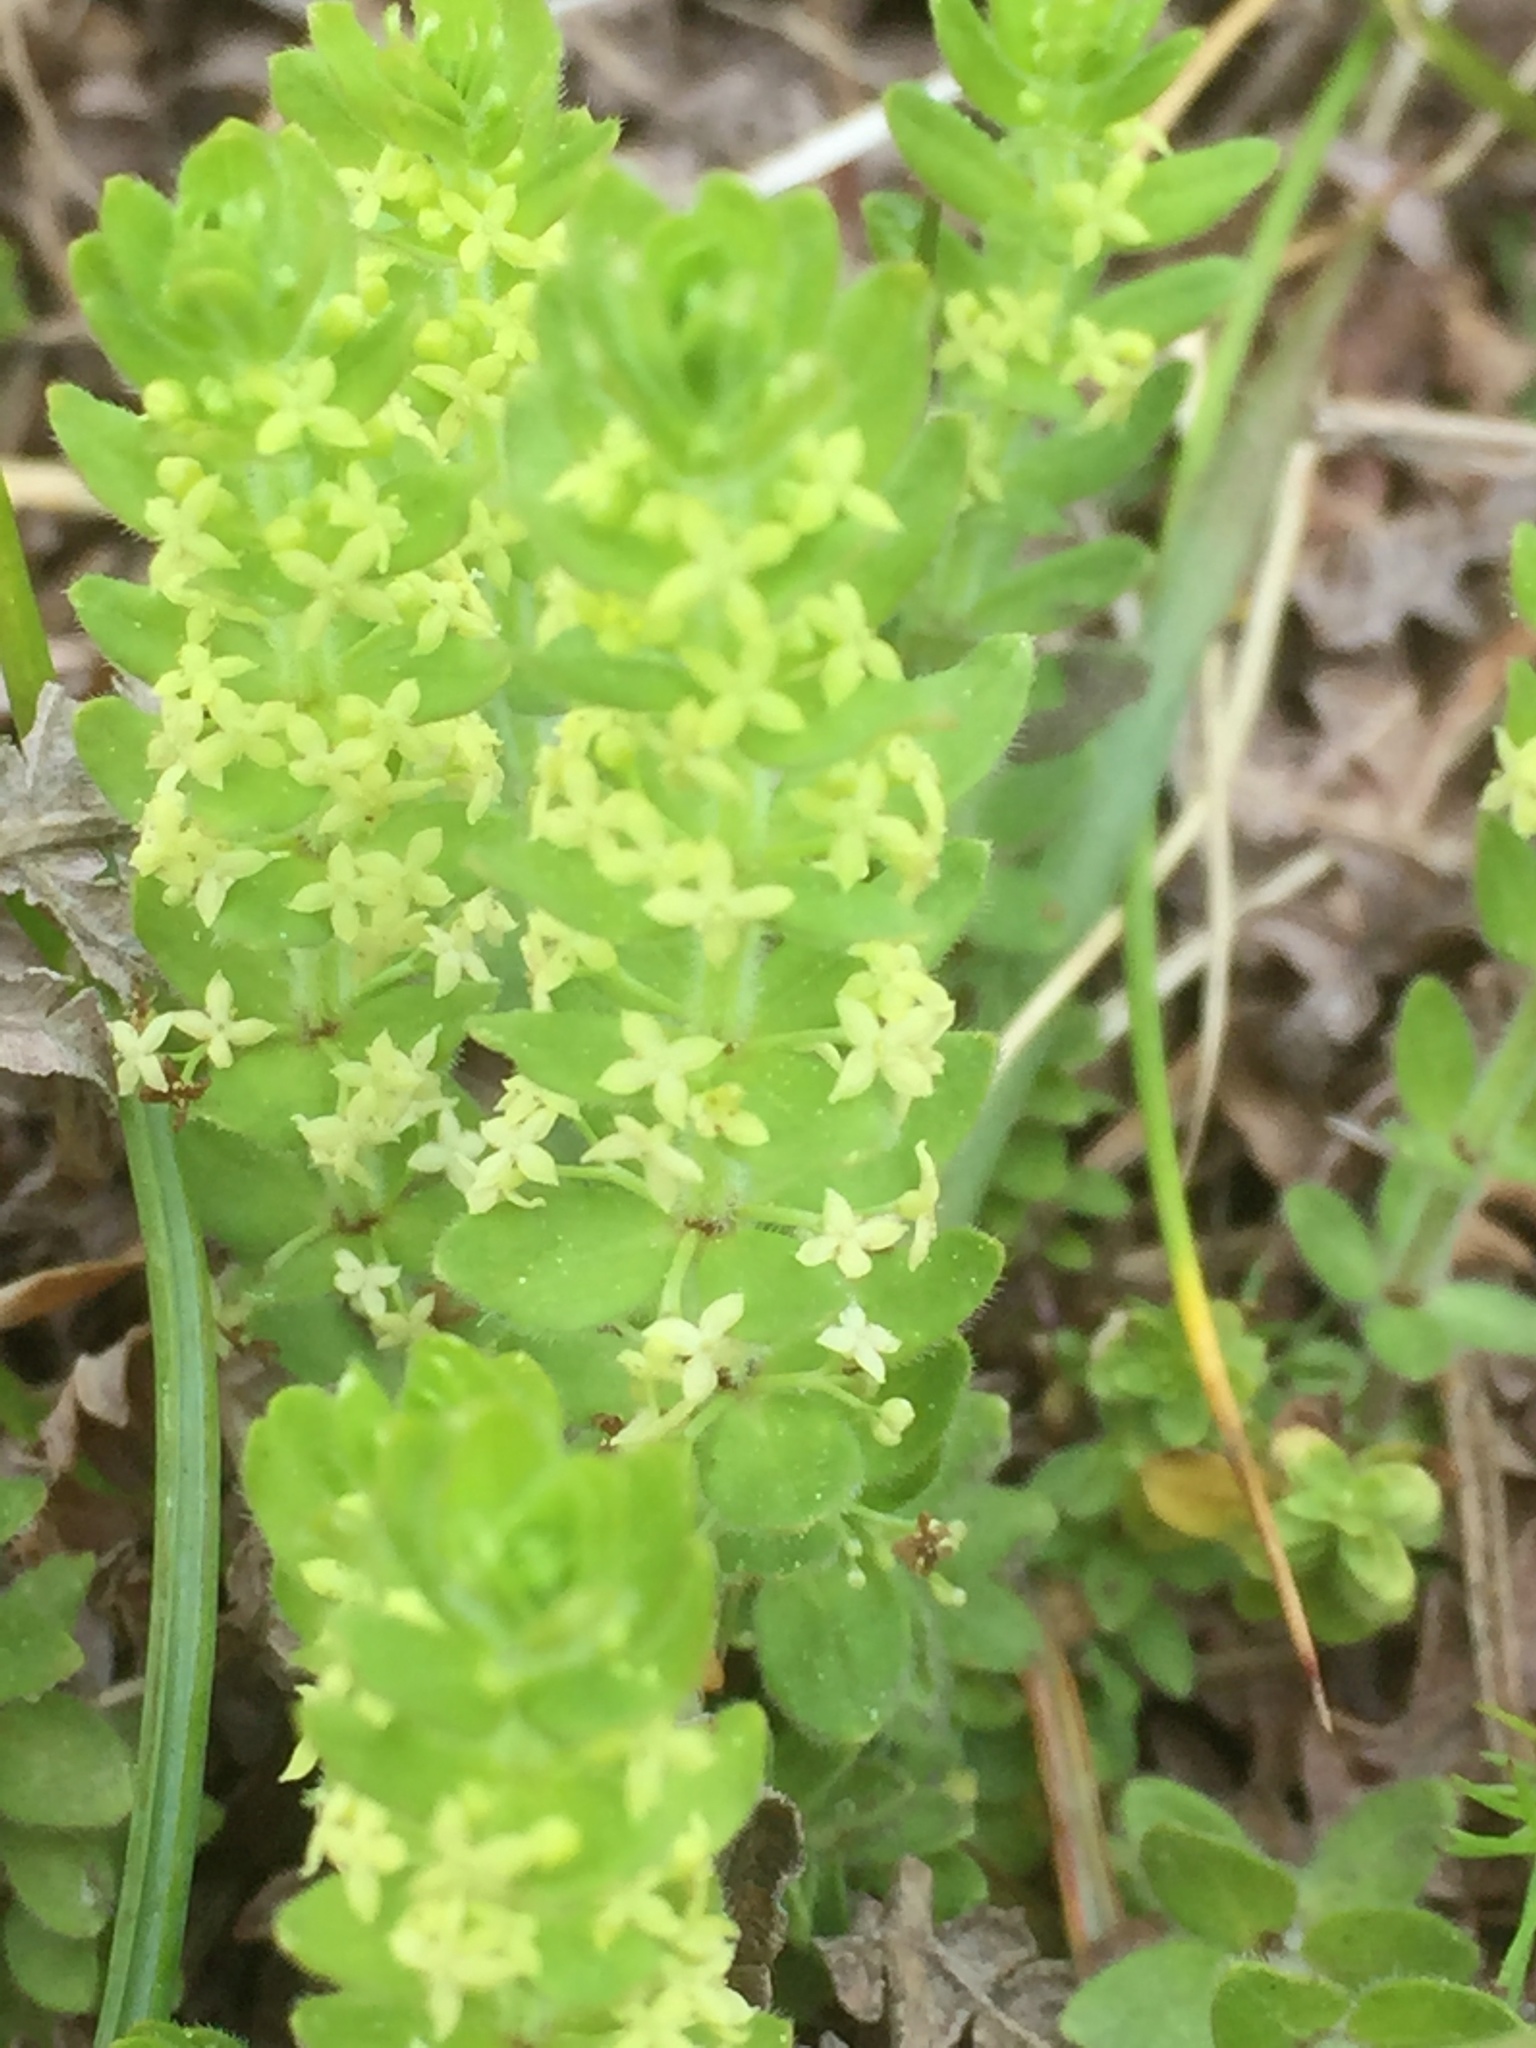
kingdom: Plantae
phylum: Tracheophyta
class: Magnoliopsida
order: Gentianales
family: Rubiaceae
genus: Cruciata
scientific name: Cruciata glabra
